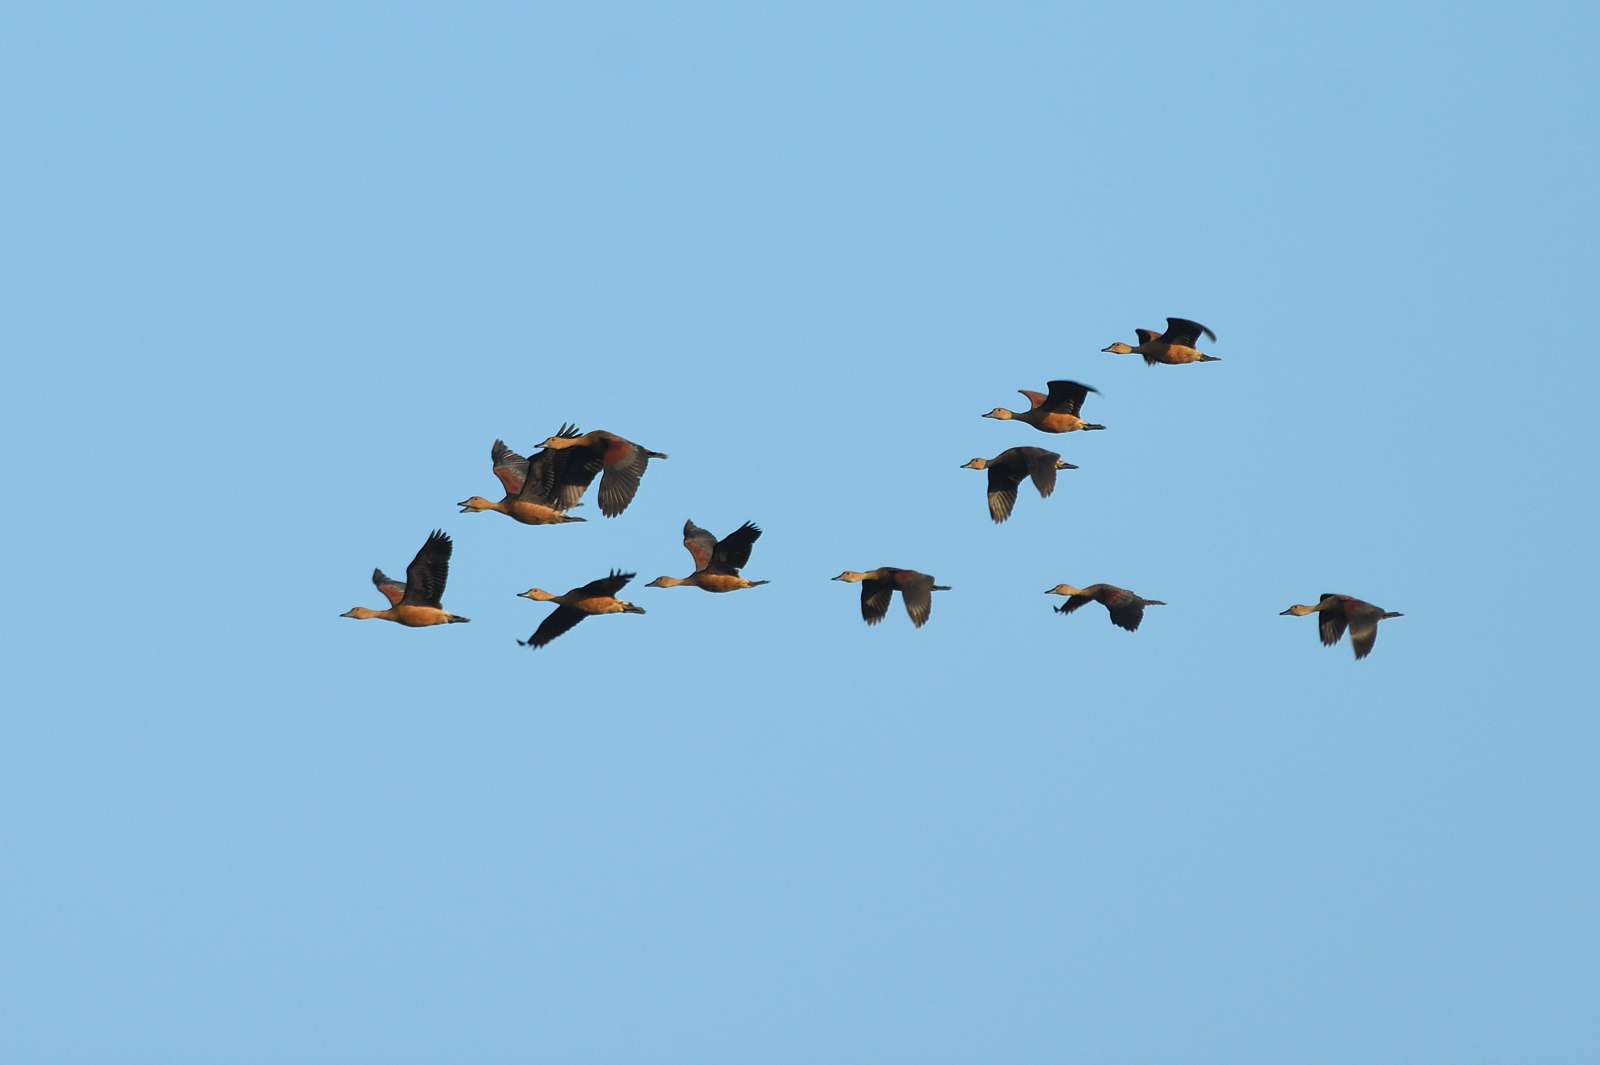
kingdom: Animalia
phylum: Chordata
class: Aves
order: Anseriformes
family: Anatidae
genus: Dendrocygna
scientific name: Dendrocygna javanica
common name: Lesser whistling-duck
